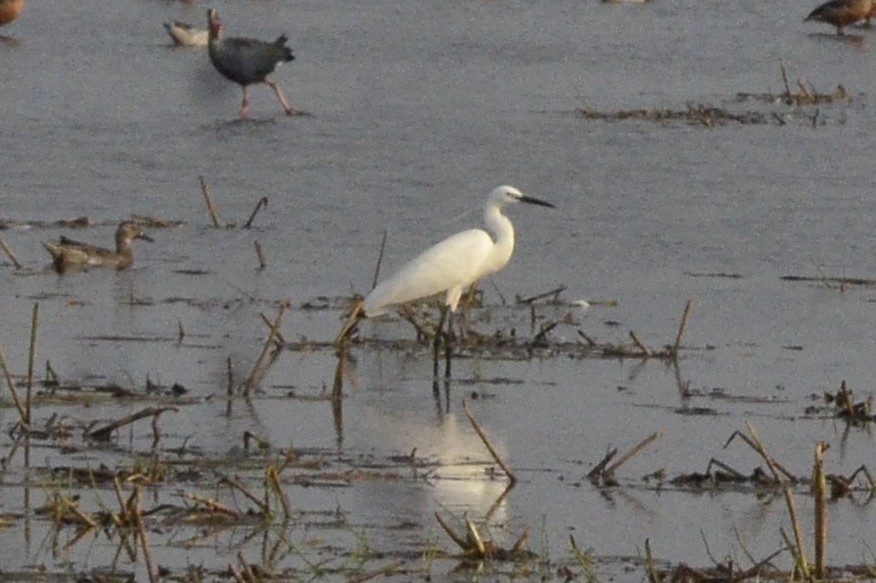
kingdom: Animalia
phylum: Chordata
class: Aves
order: Pelecaniformes
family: Ardeidae
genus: Egretta
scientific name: Egretta garzetta
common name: Little egret
